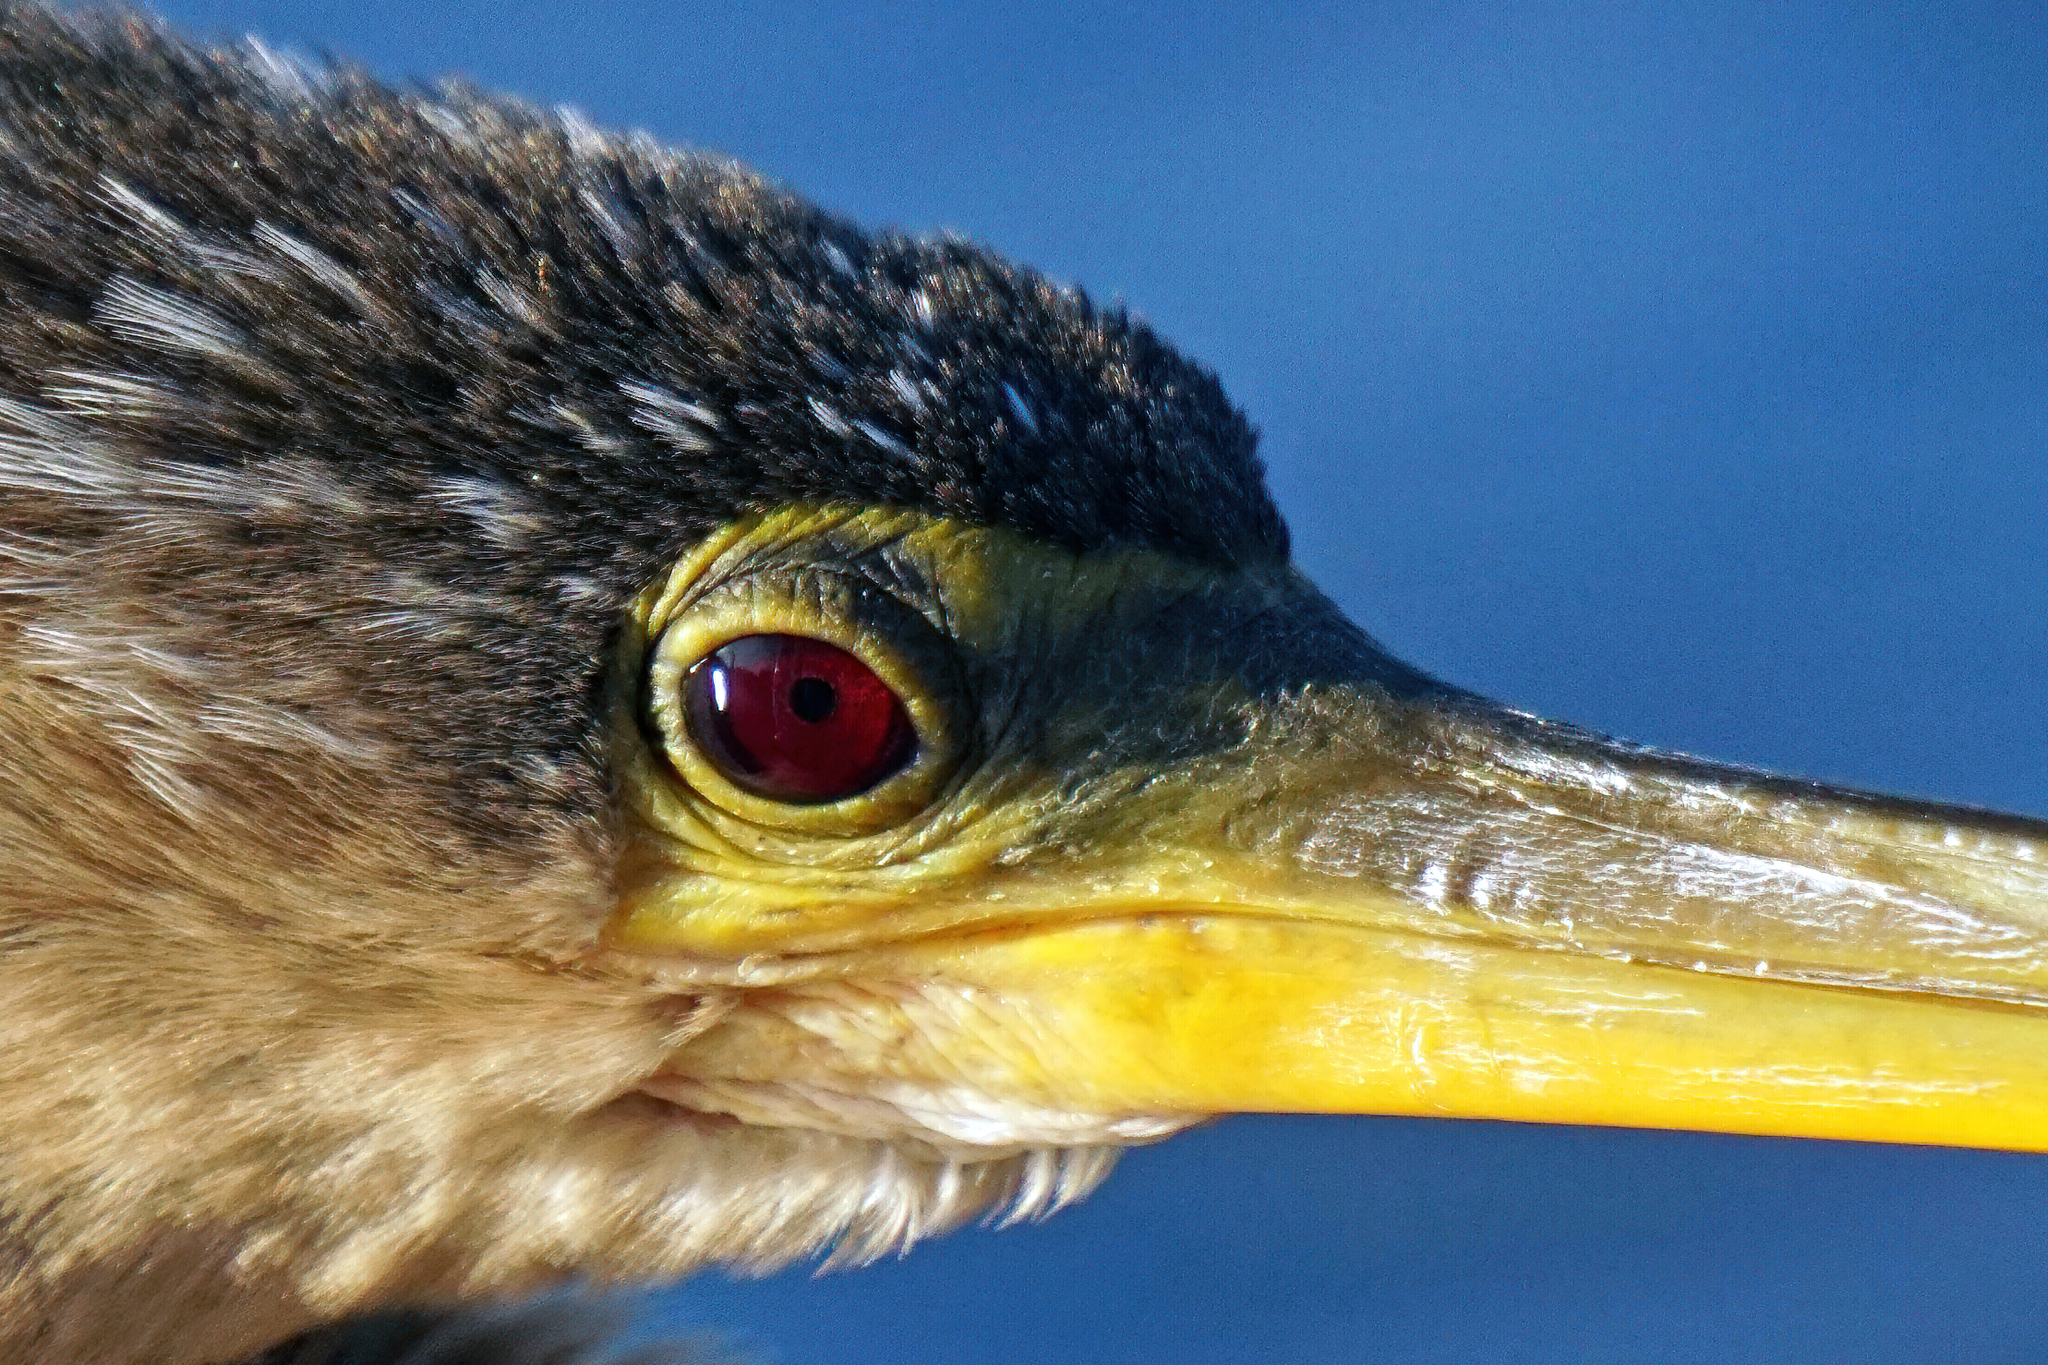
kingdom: Animalia
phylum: Chordata
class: Aves
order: Suliformes
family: Anhingidae
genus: Anhinga
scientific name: Anhinga anhinga
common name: Anhinga
